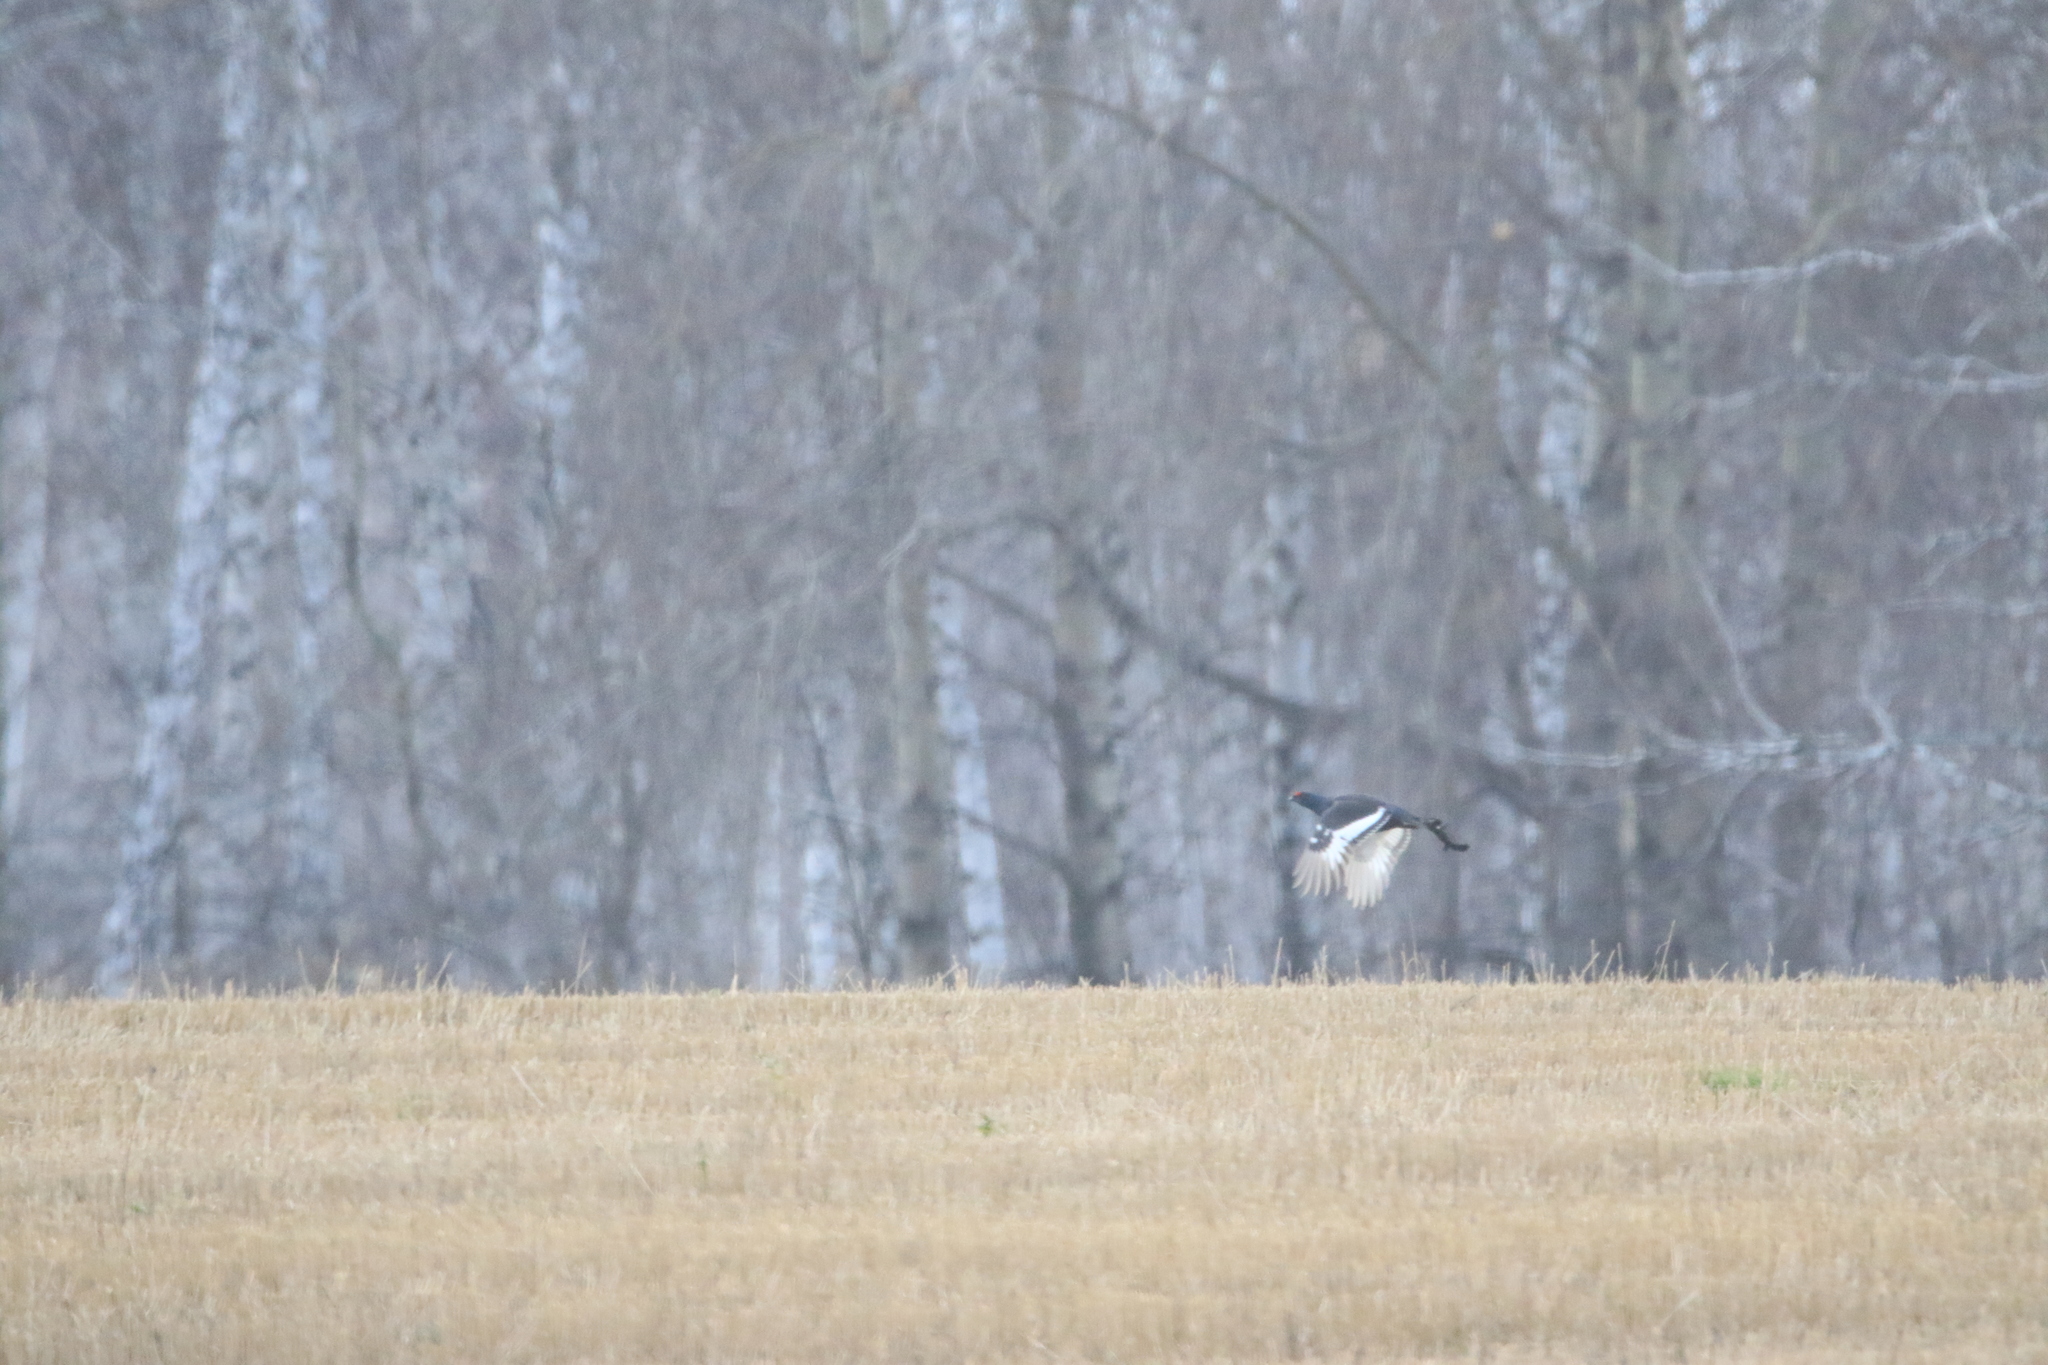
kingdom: Animalia
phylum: Chordata
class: Aves
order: Galliformes
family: Phasianidae
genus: Lyrurus
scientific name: Lyrurus tetrix
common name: Black grouse
